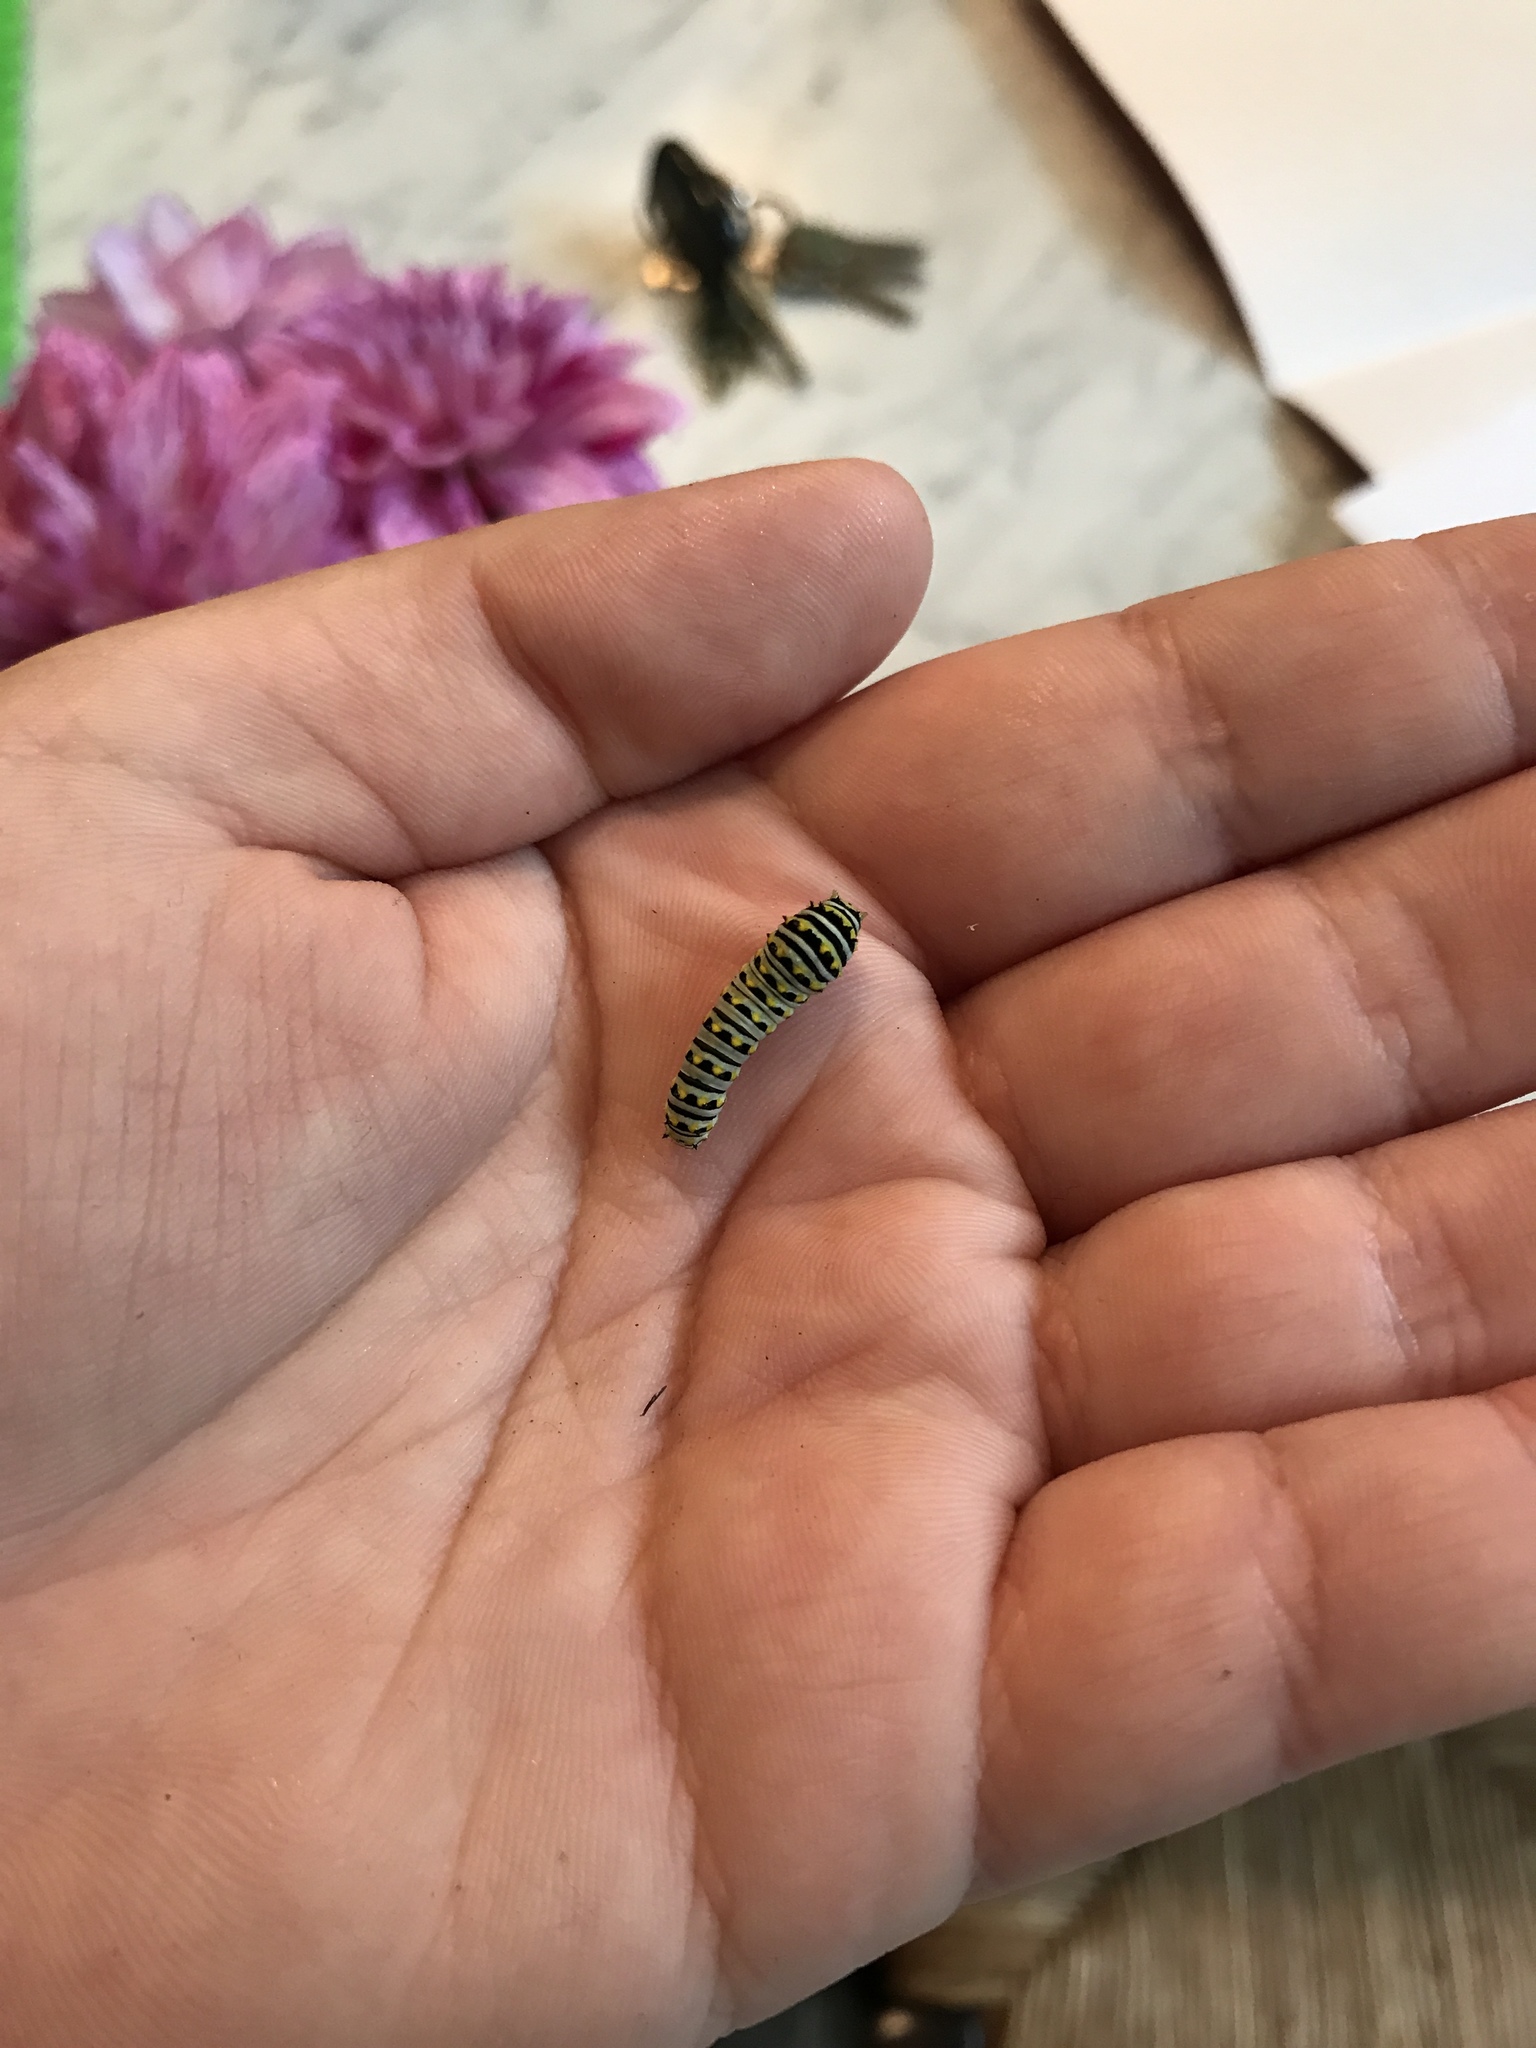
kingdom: Animalia
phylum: Arthropoda
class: Insecta
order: Lepidoptera
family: Papilionidae
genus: Papilio
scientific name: Papilio polyxenes
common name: Black swallowtail
